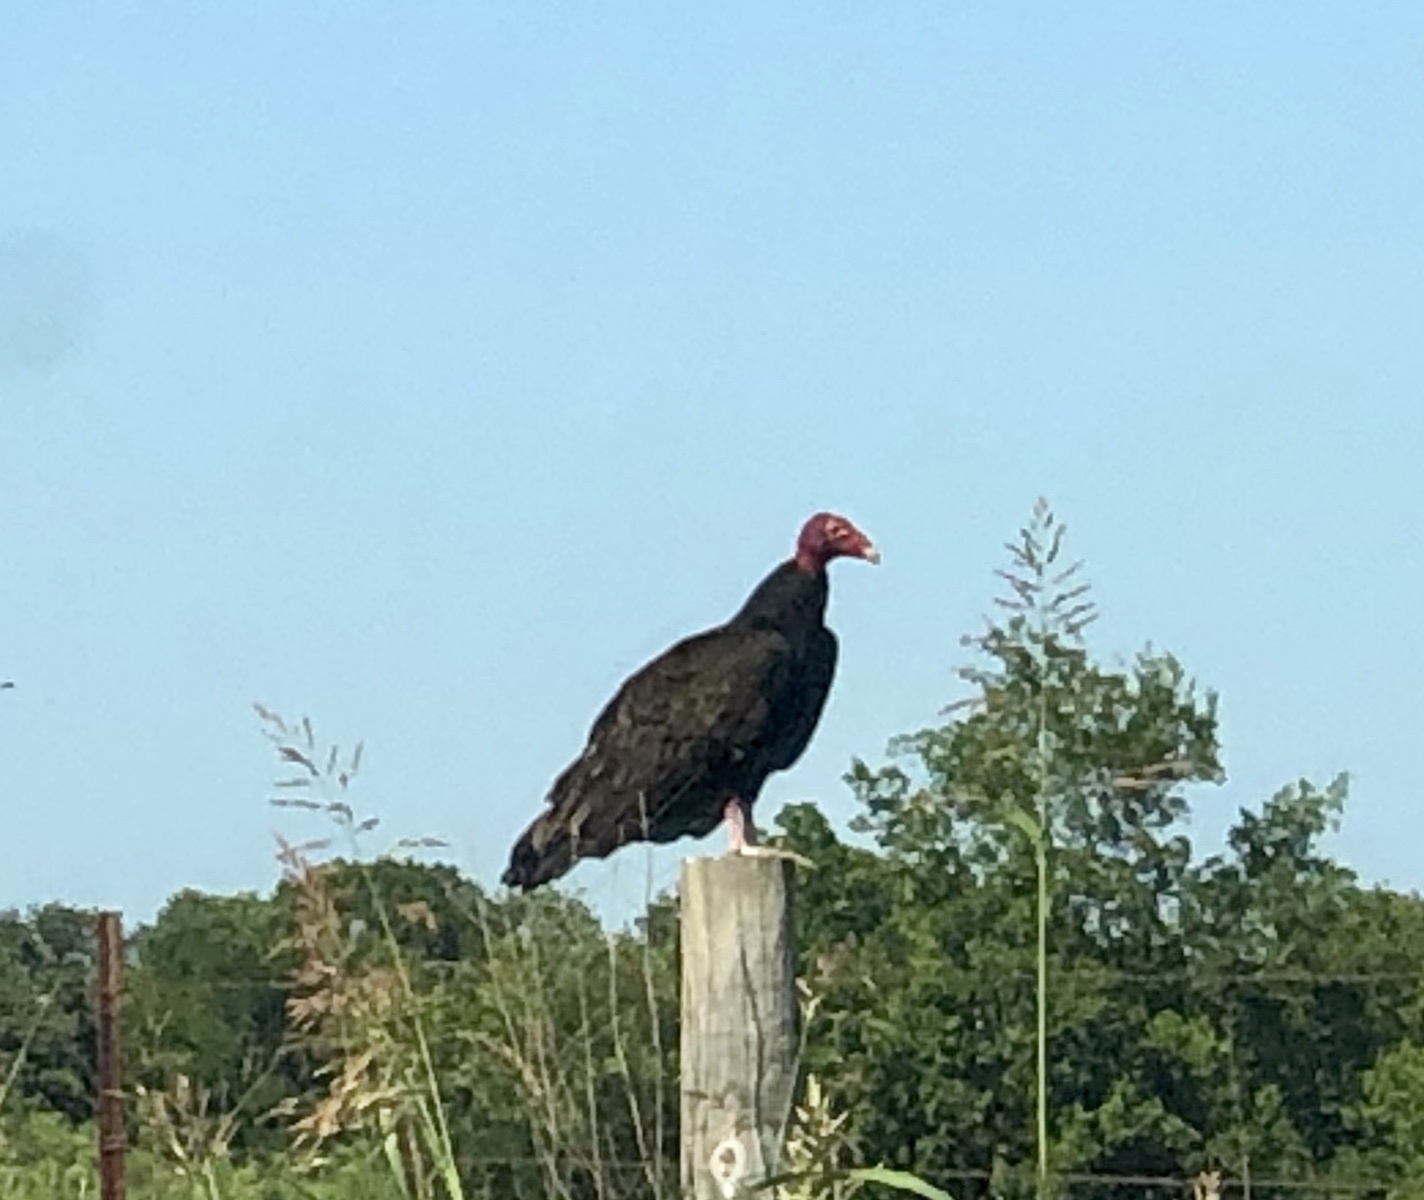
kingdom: Animalia
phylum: Chordata
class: Aves
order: Accipitriformes
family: Cathartidae
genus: Cathartes
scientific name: Cathartes aura
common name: Turkey vulture
